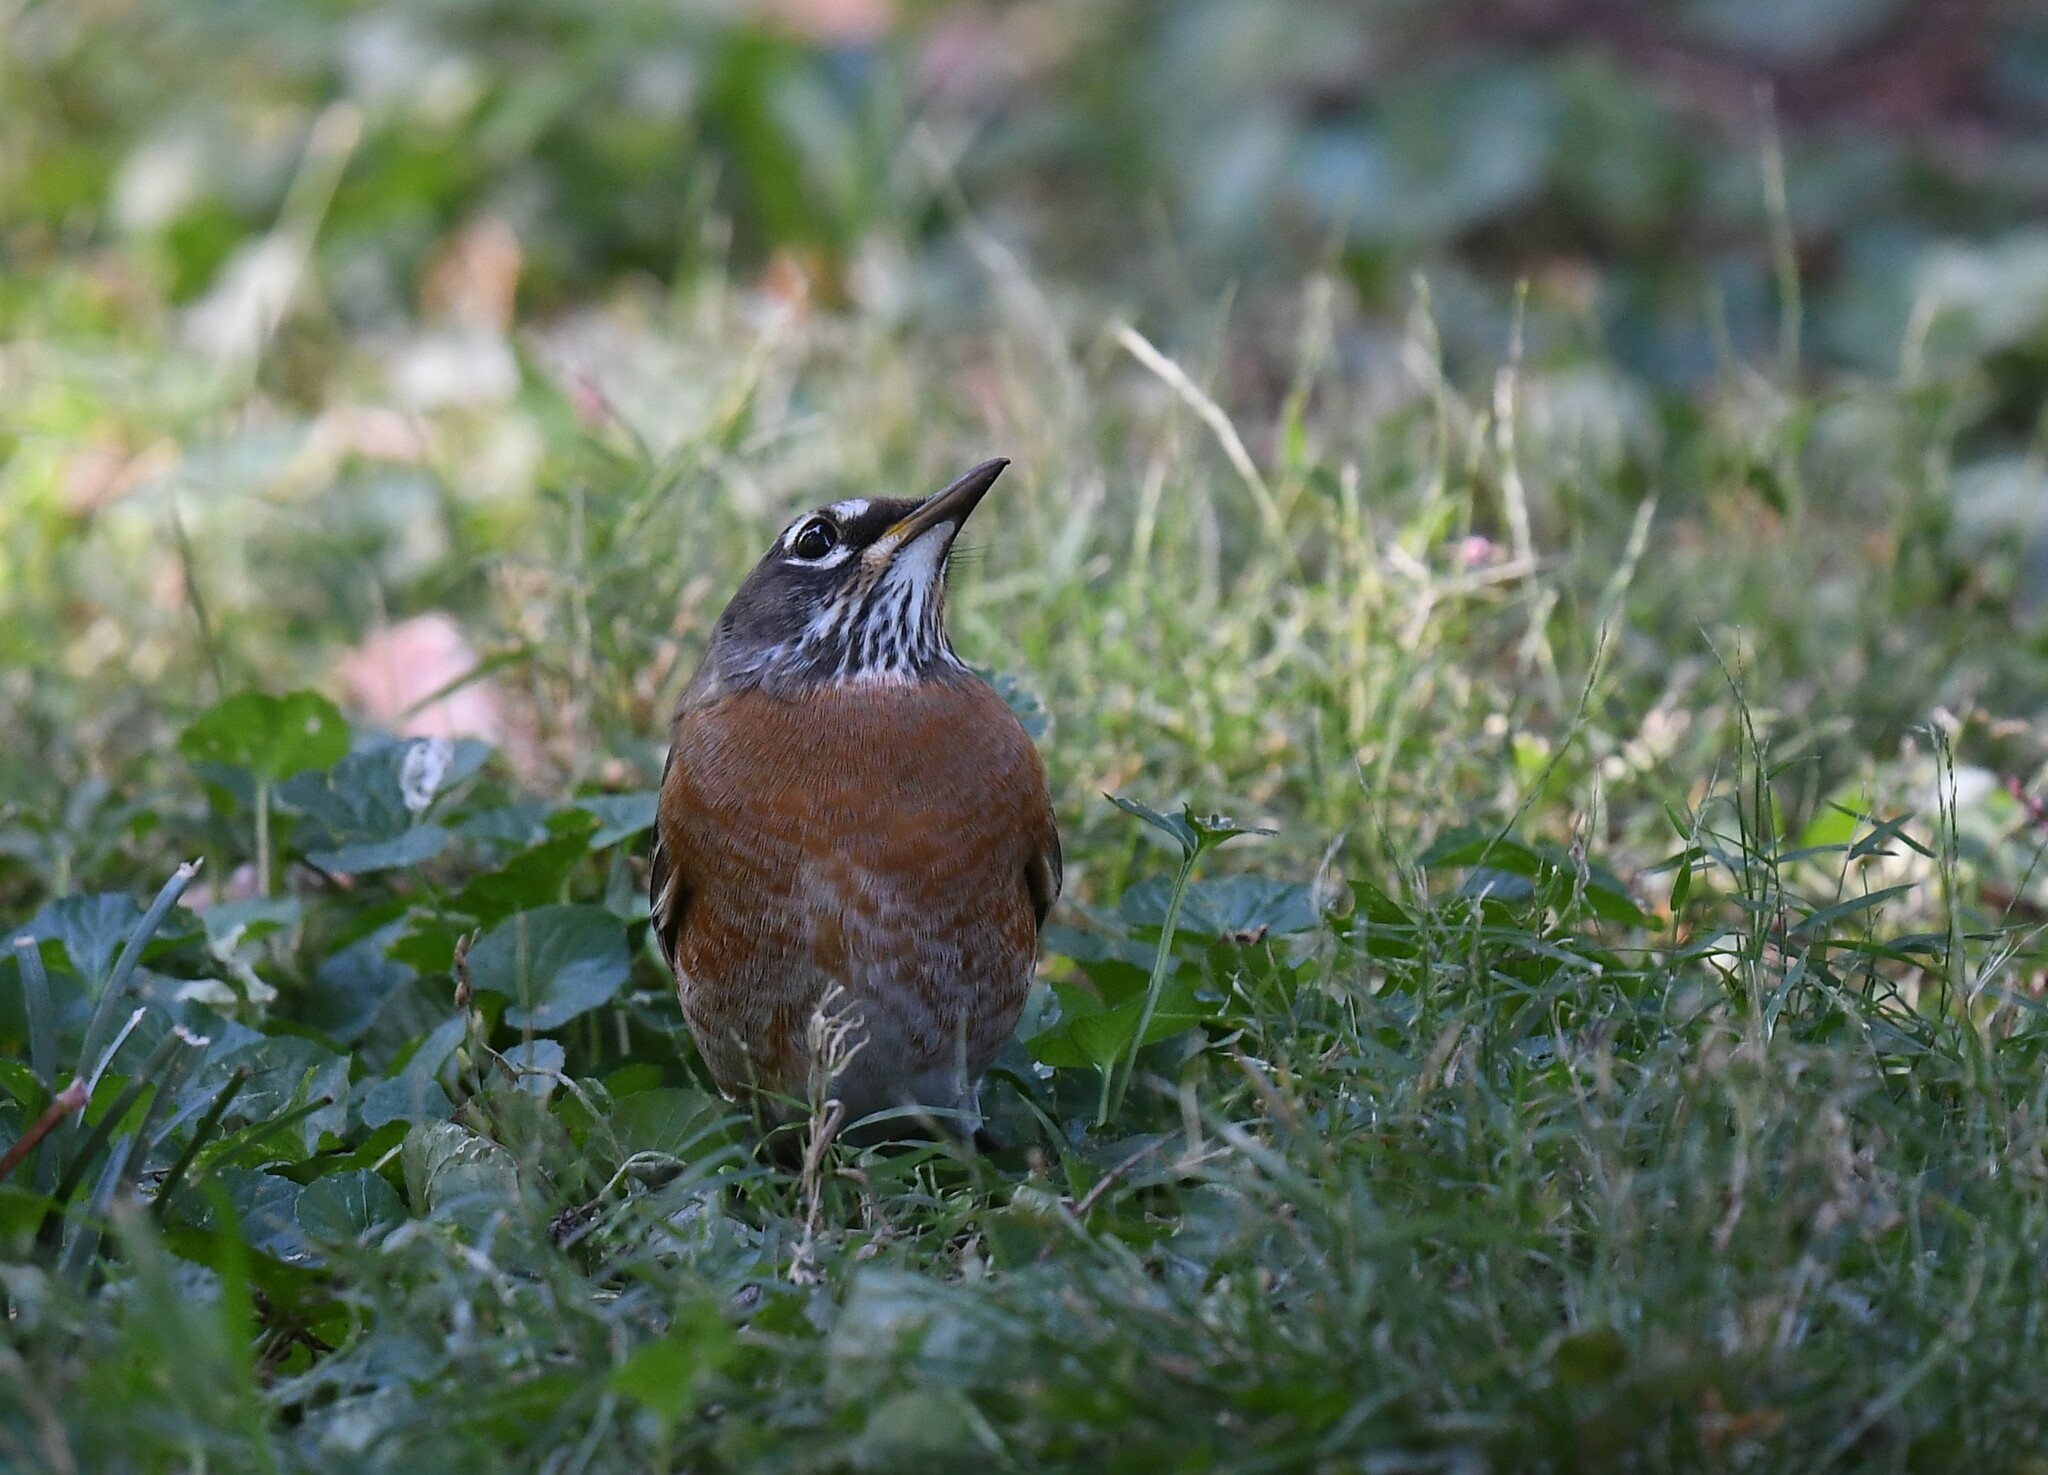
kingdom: Animalia
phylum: Chordata
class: Aves
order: Passeriformes
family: Turdidae
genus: Turdus
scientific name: Turdus migratorius
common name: American robin
